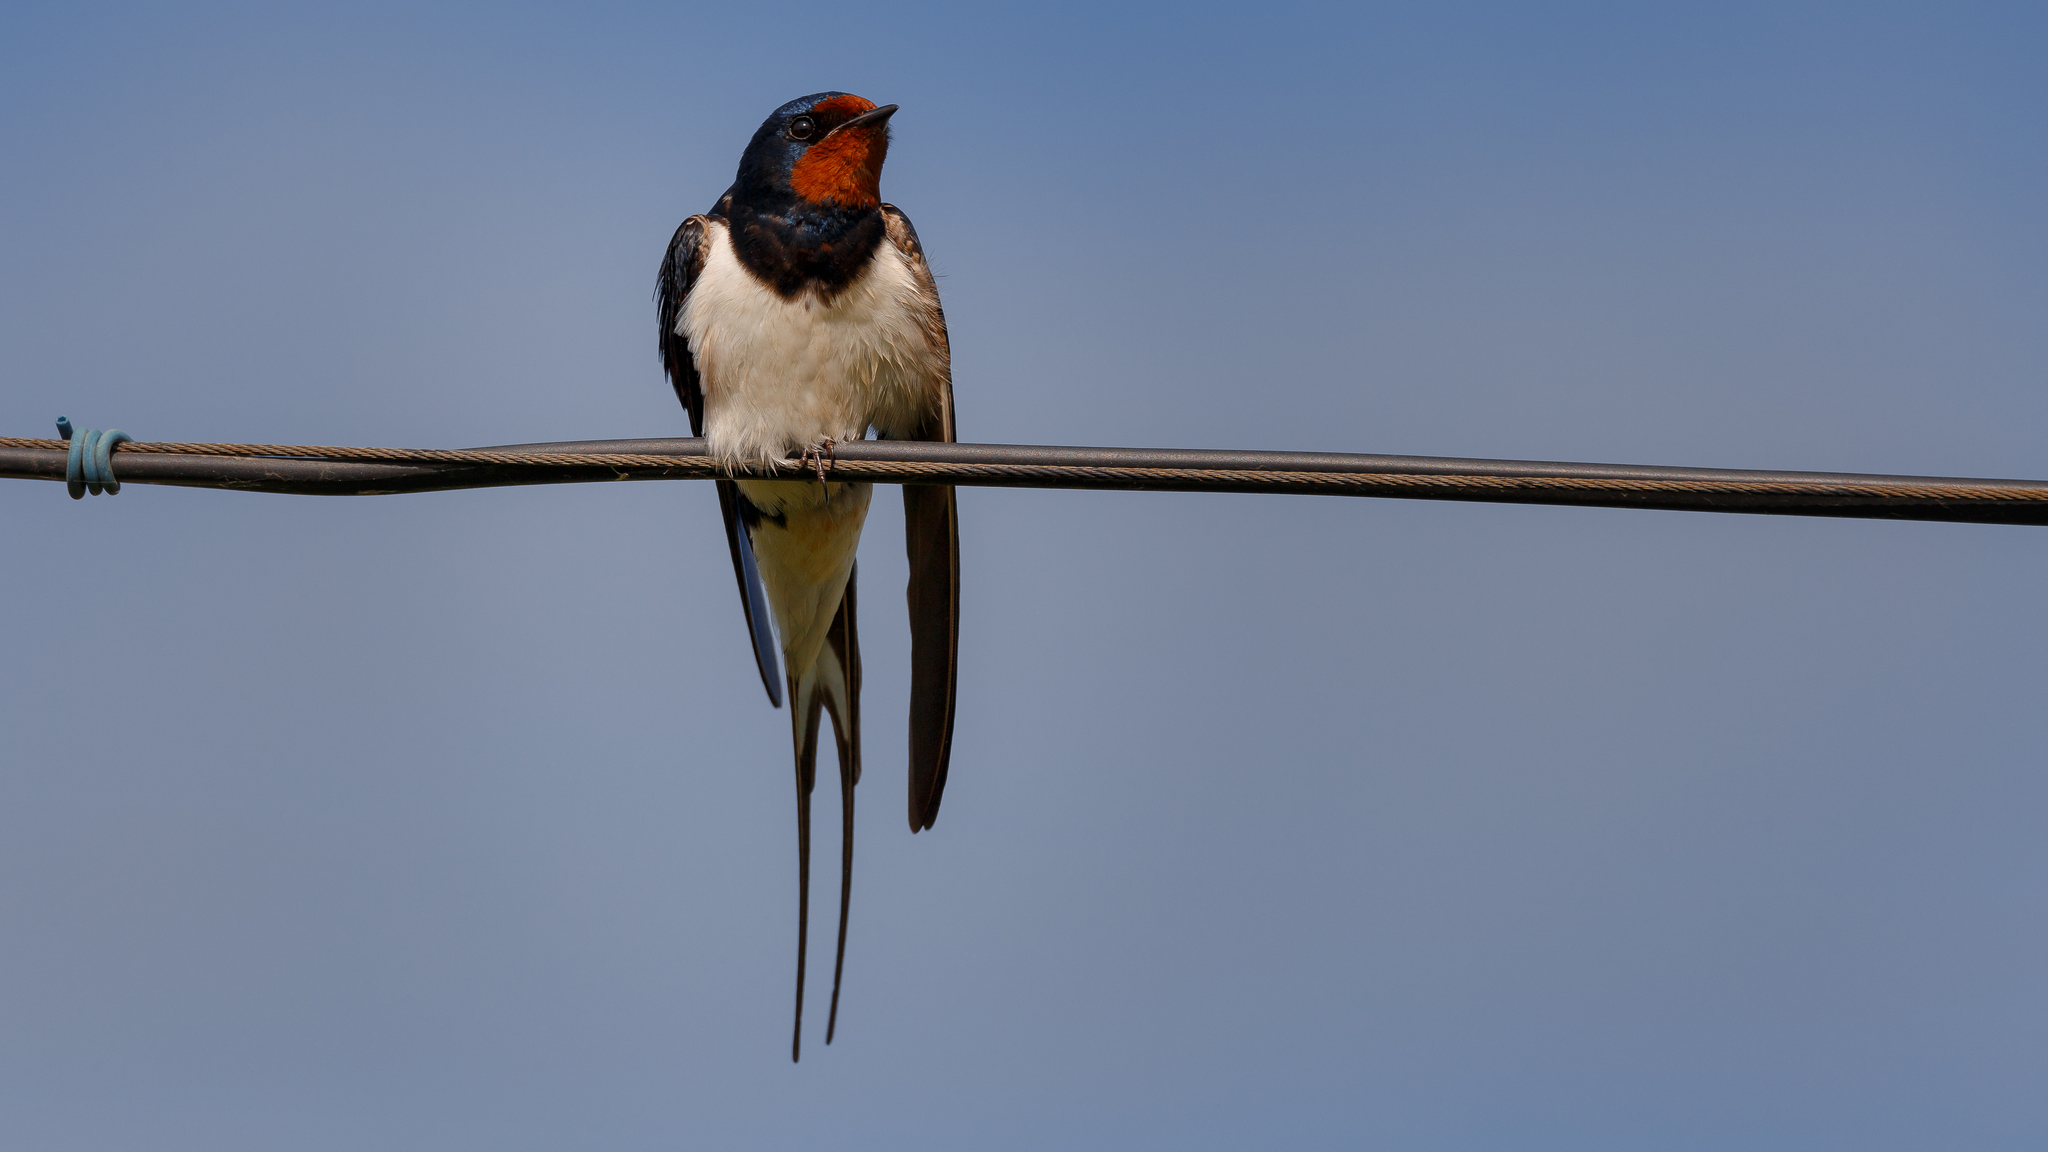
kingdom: Animalia
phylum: Chordata
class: Aves
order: Passeriformes
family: Hirundinidae
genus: Hirundo
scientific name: Hirundo rustica
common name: Barn swallow
